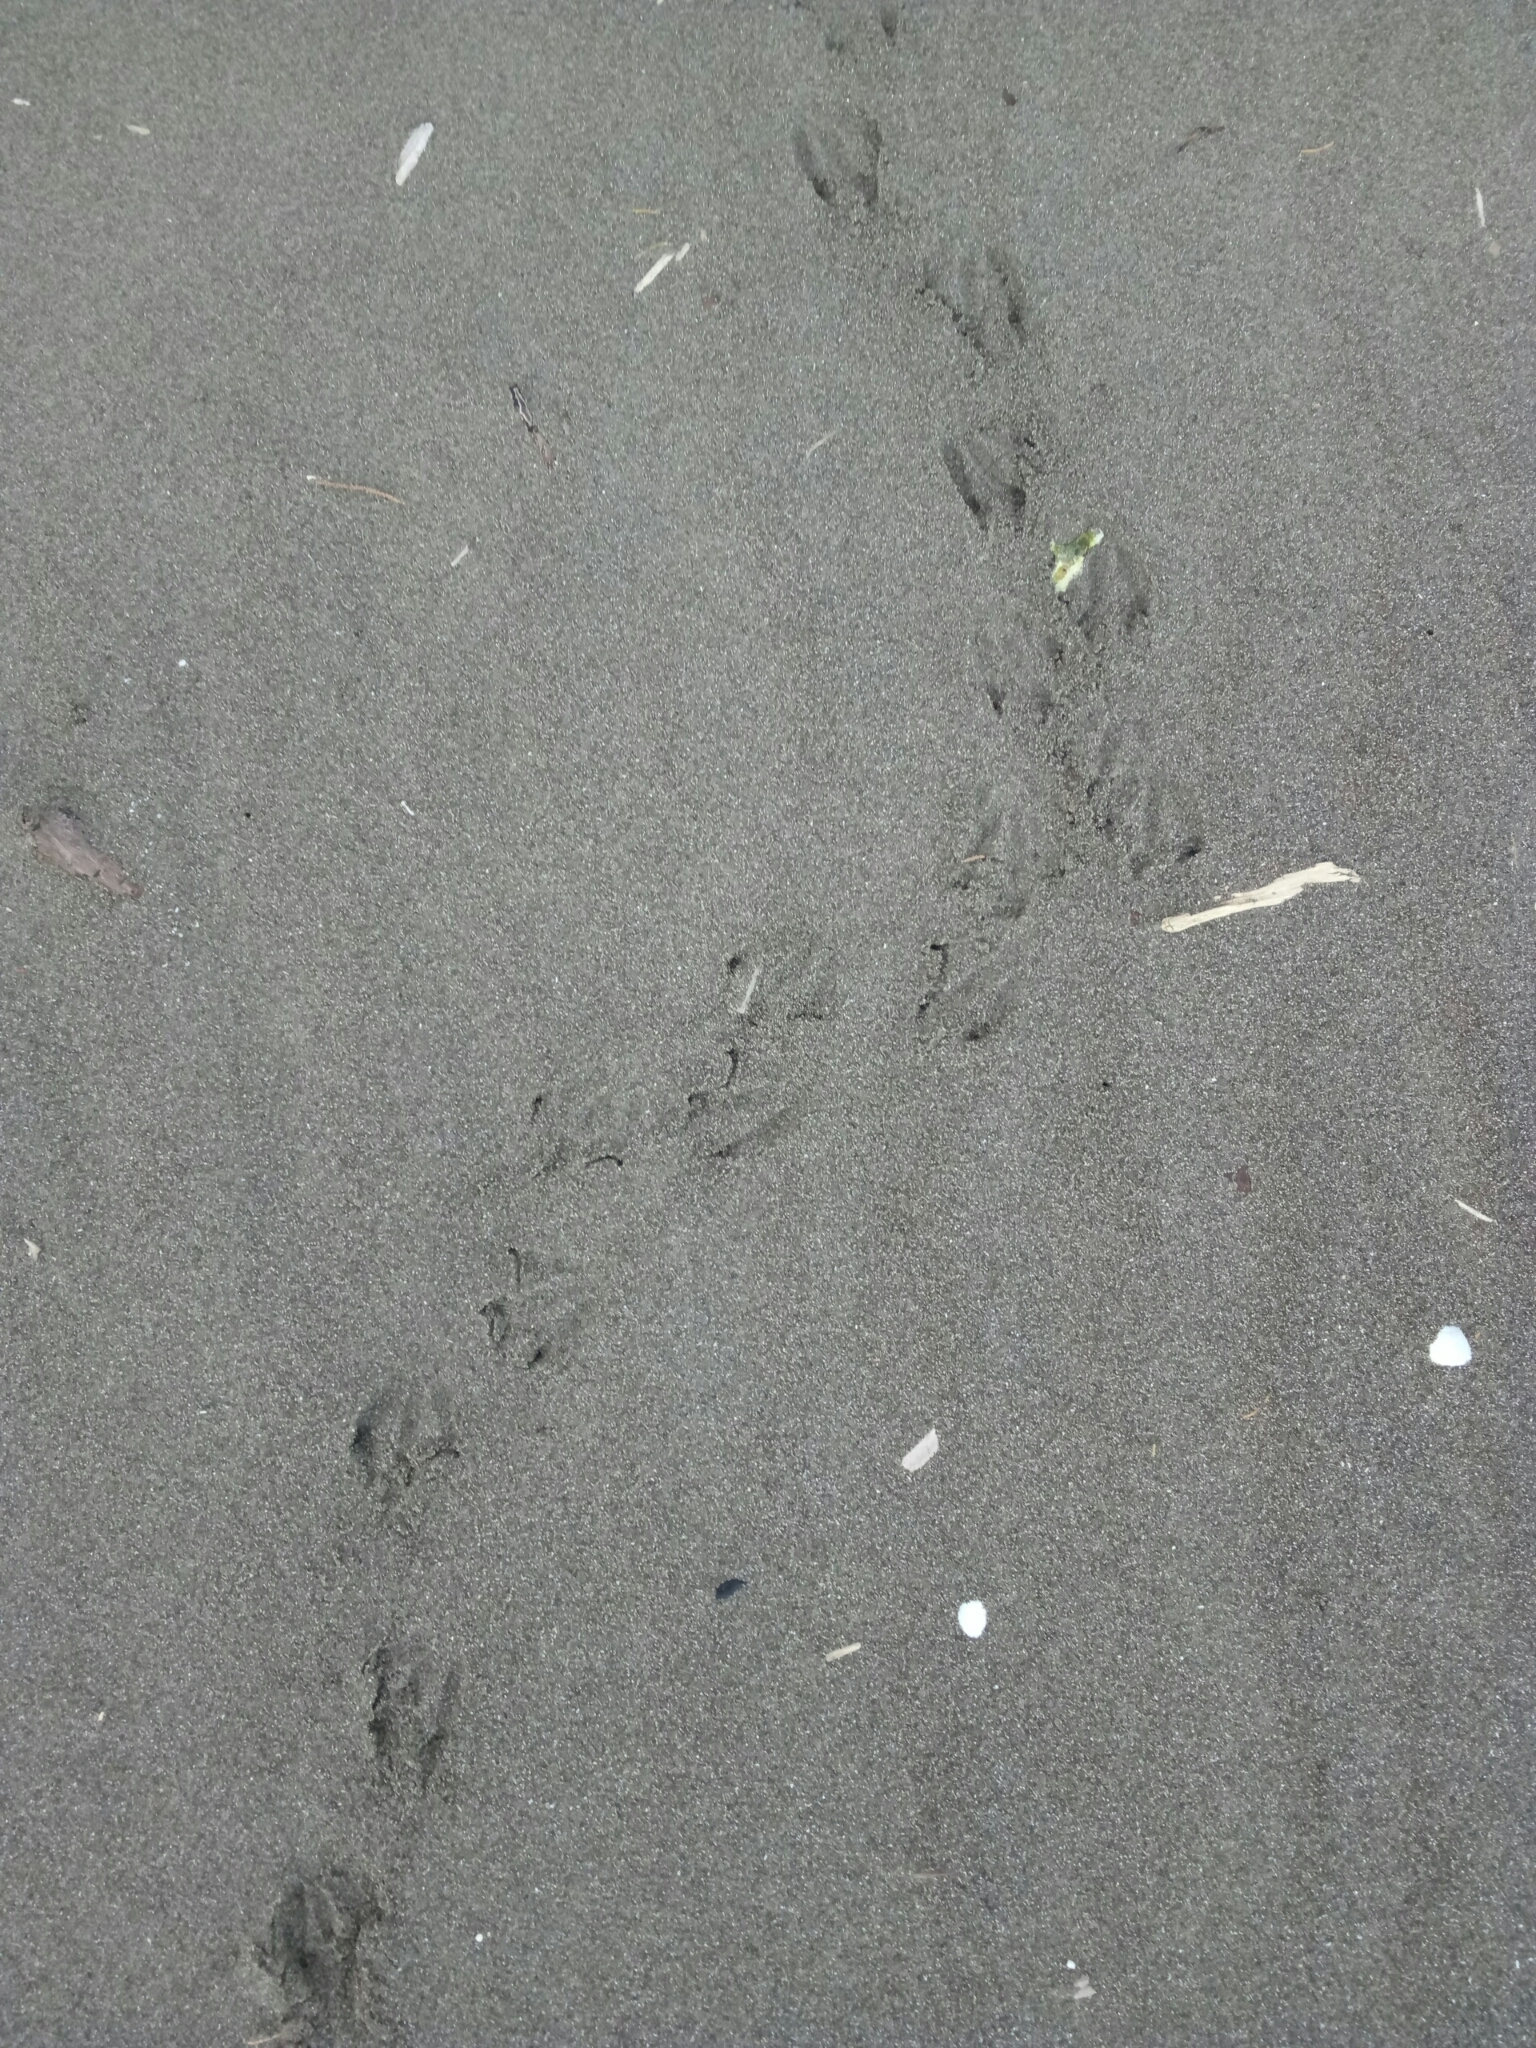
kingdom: Animalia
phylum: Chordata
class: Aves
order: Sphenisciformes
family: Spheniscidae
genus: Eudyptula
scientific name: Eudyptula minor
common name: Little penguin
